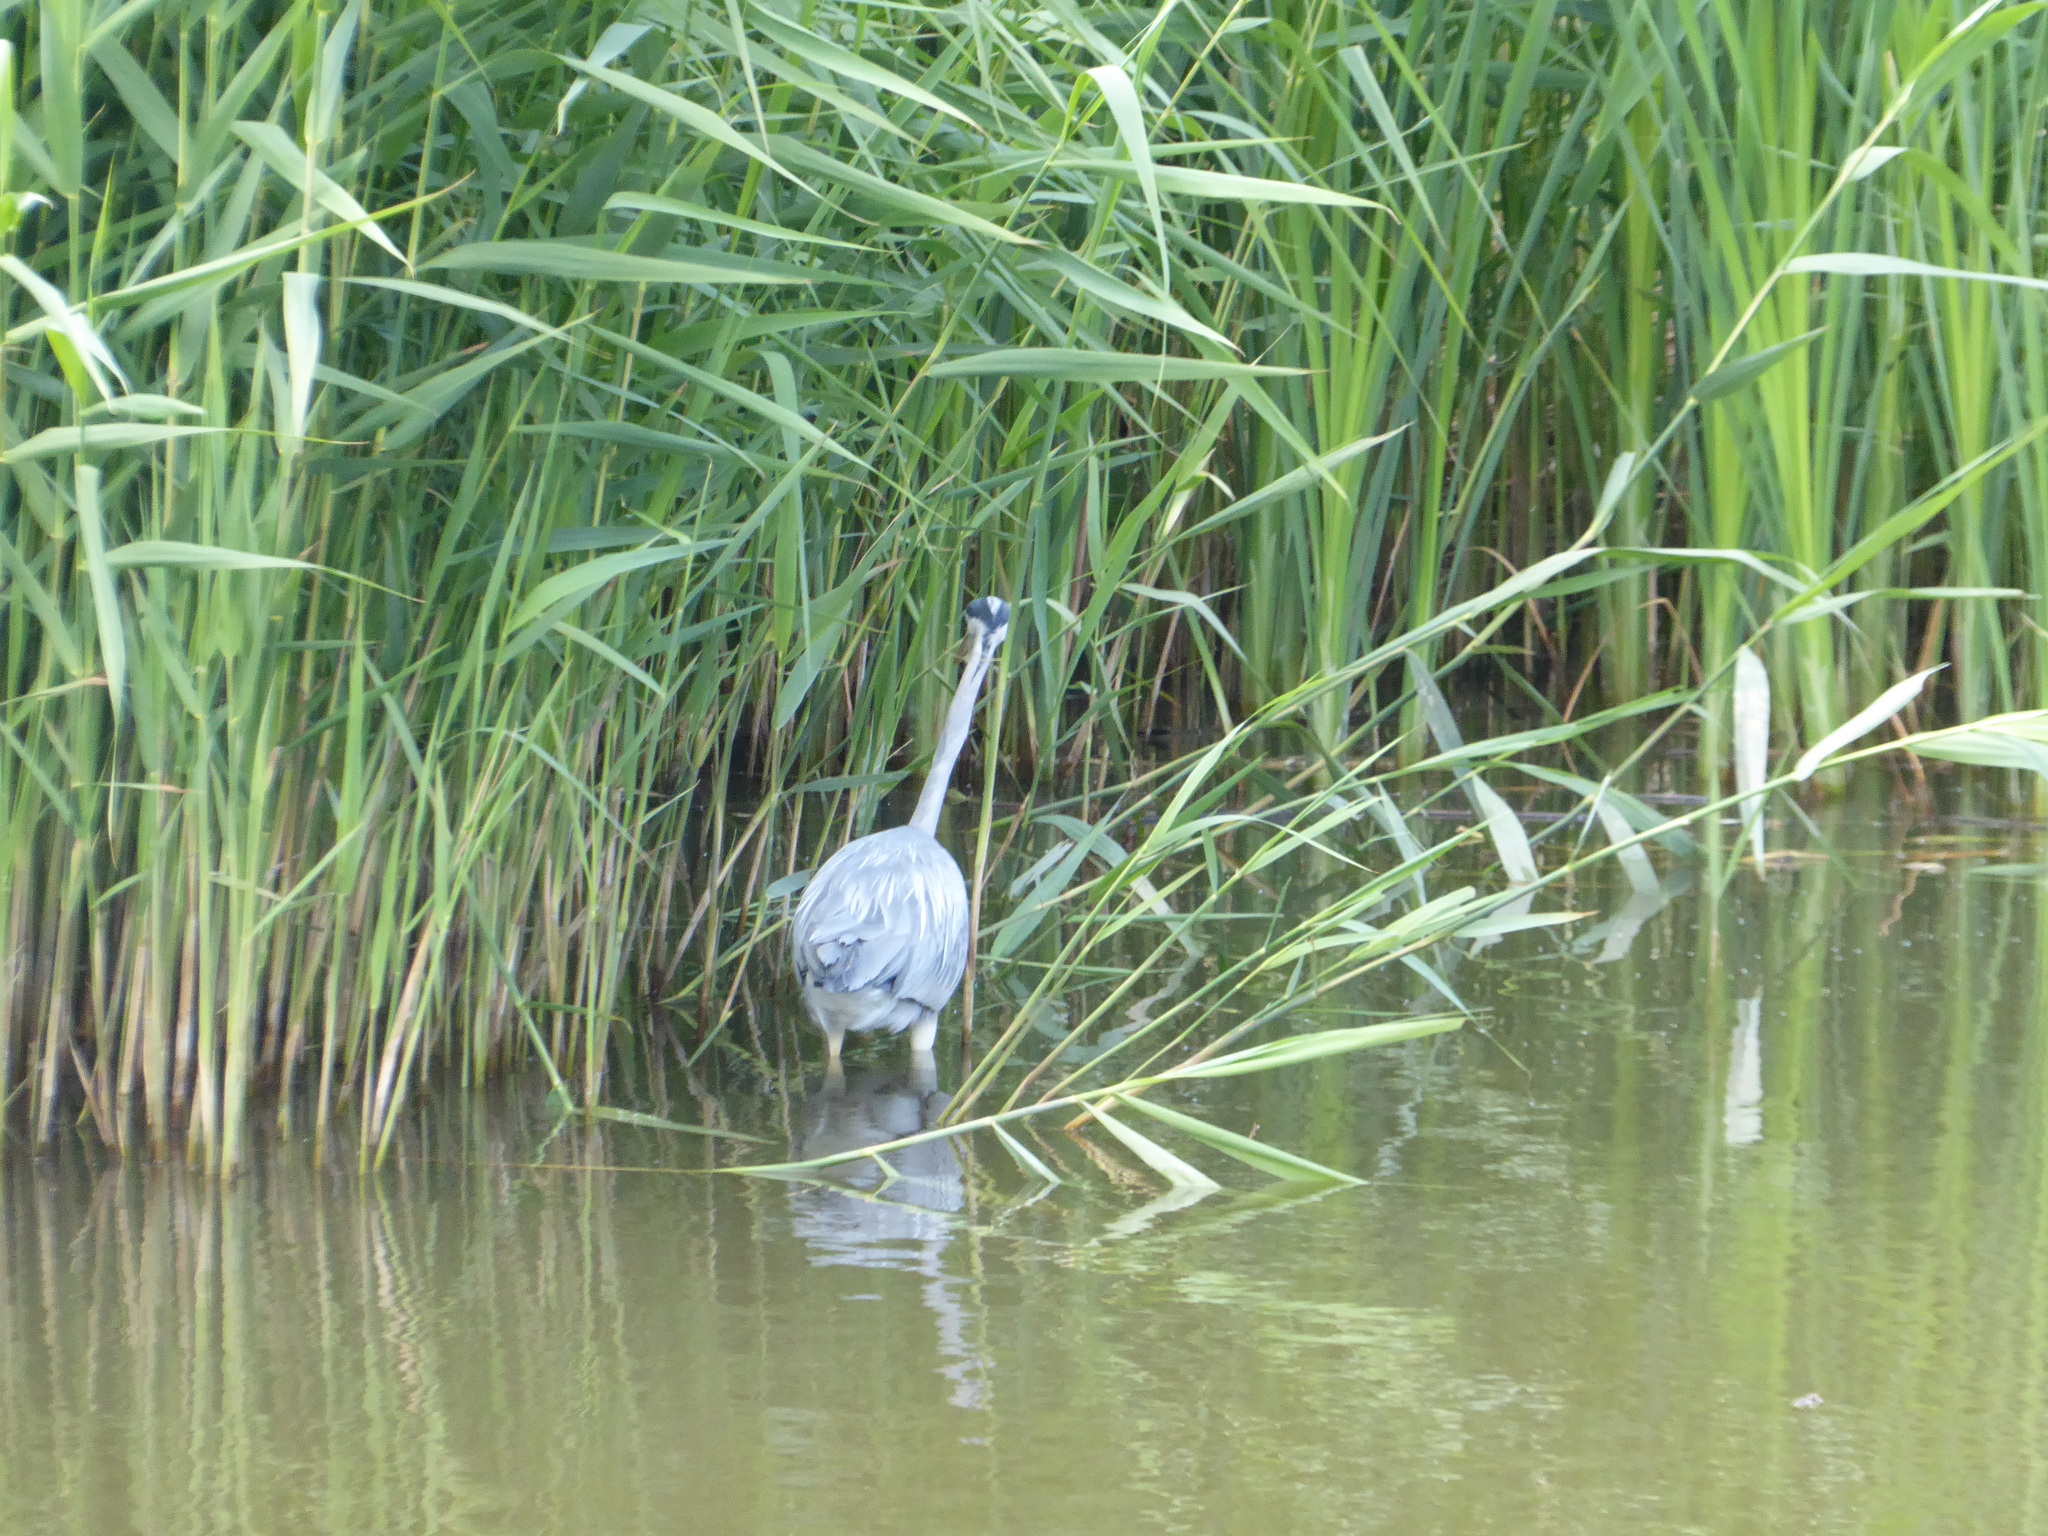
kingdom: Animalia
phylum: Chordata
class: Aves
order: Pelecaniformes
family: Ardeidae
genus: Ardea
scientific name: Ardea cinerea
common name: Grey heron
